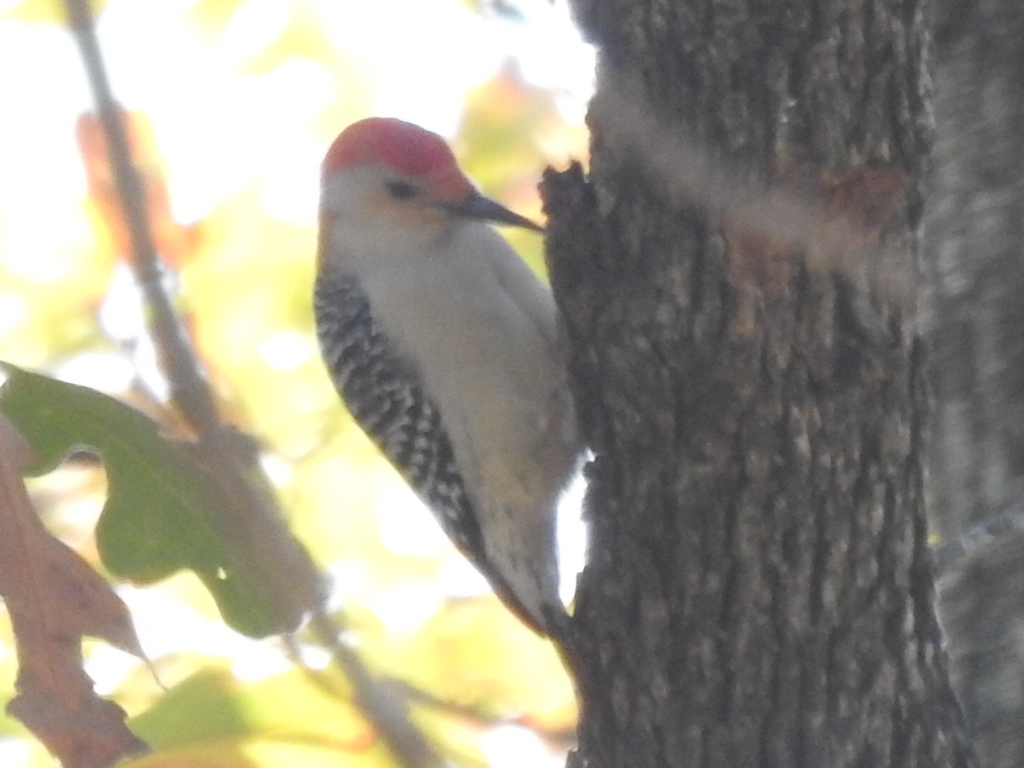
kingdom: Animalia
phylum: Chordata
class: Aves
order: Piciformes
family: Picidae
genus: Melanerpes
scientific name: Melanerpes carolinus
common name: Red-bellied woodpecker
